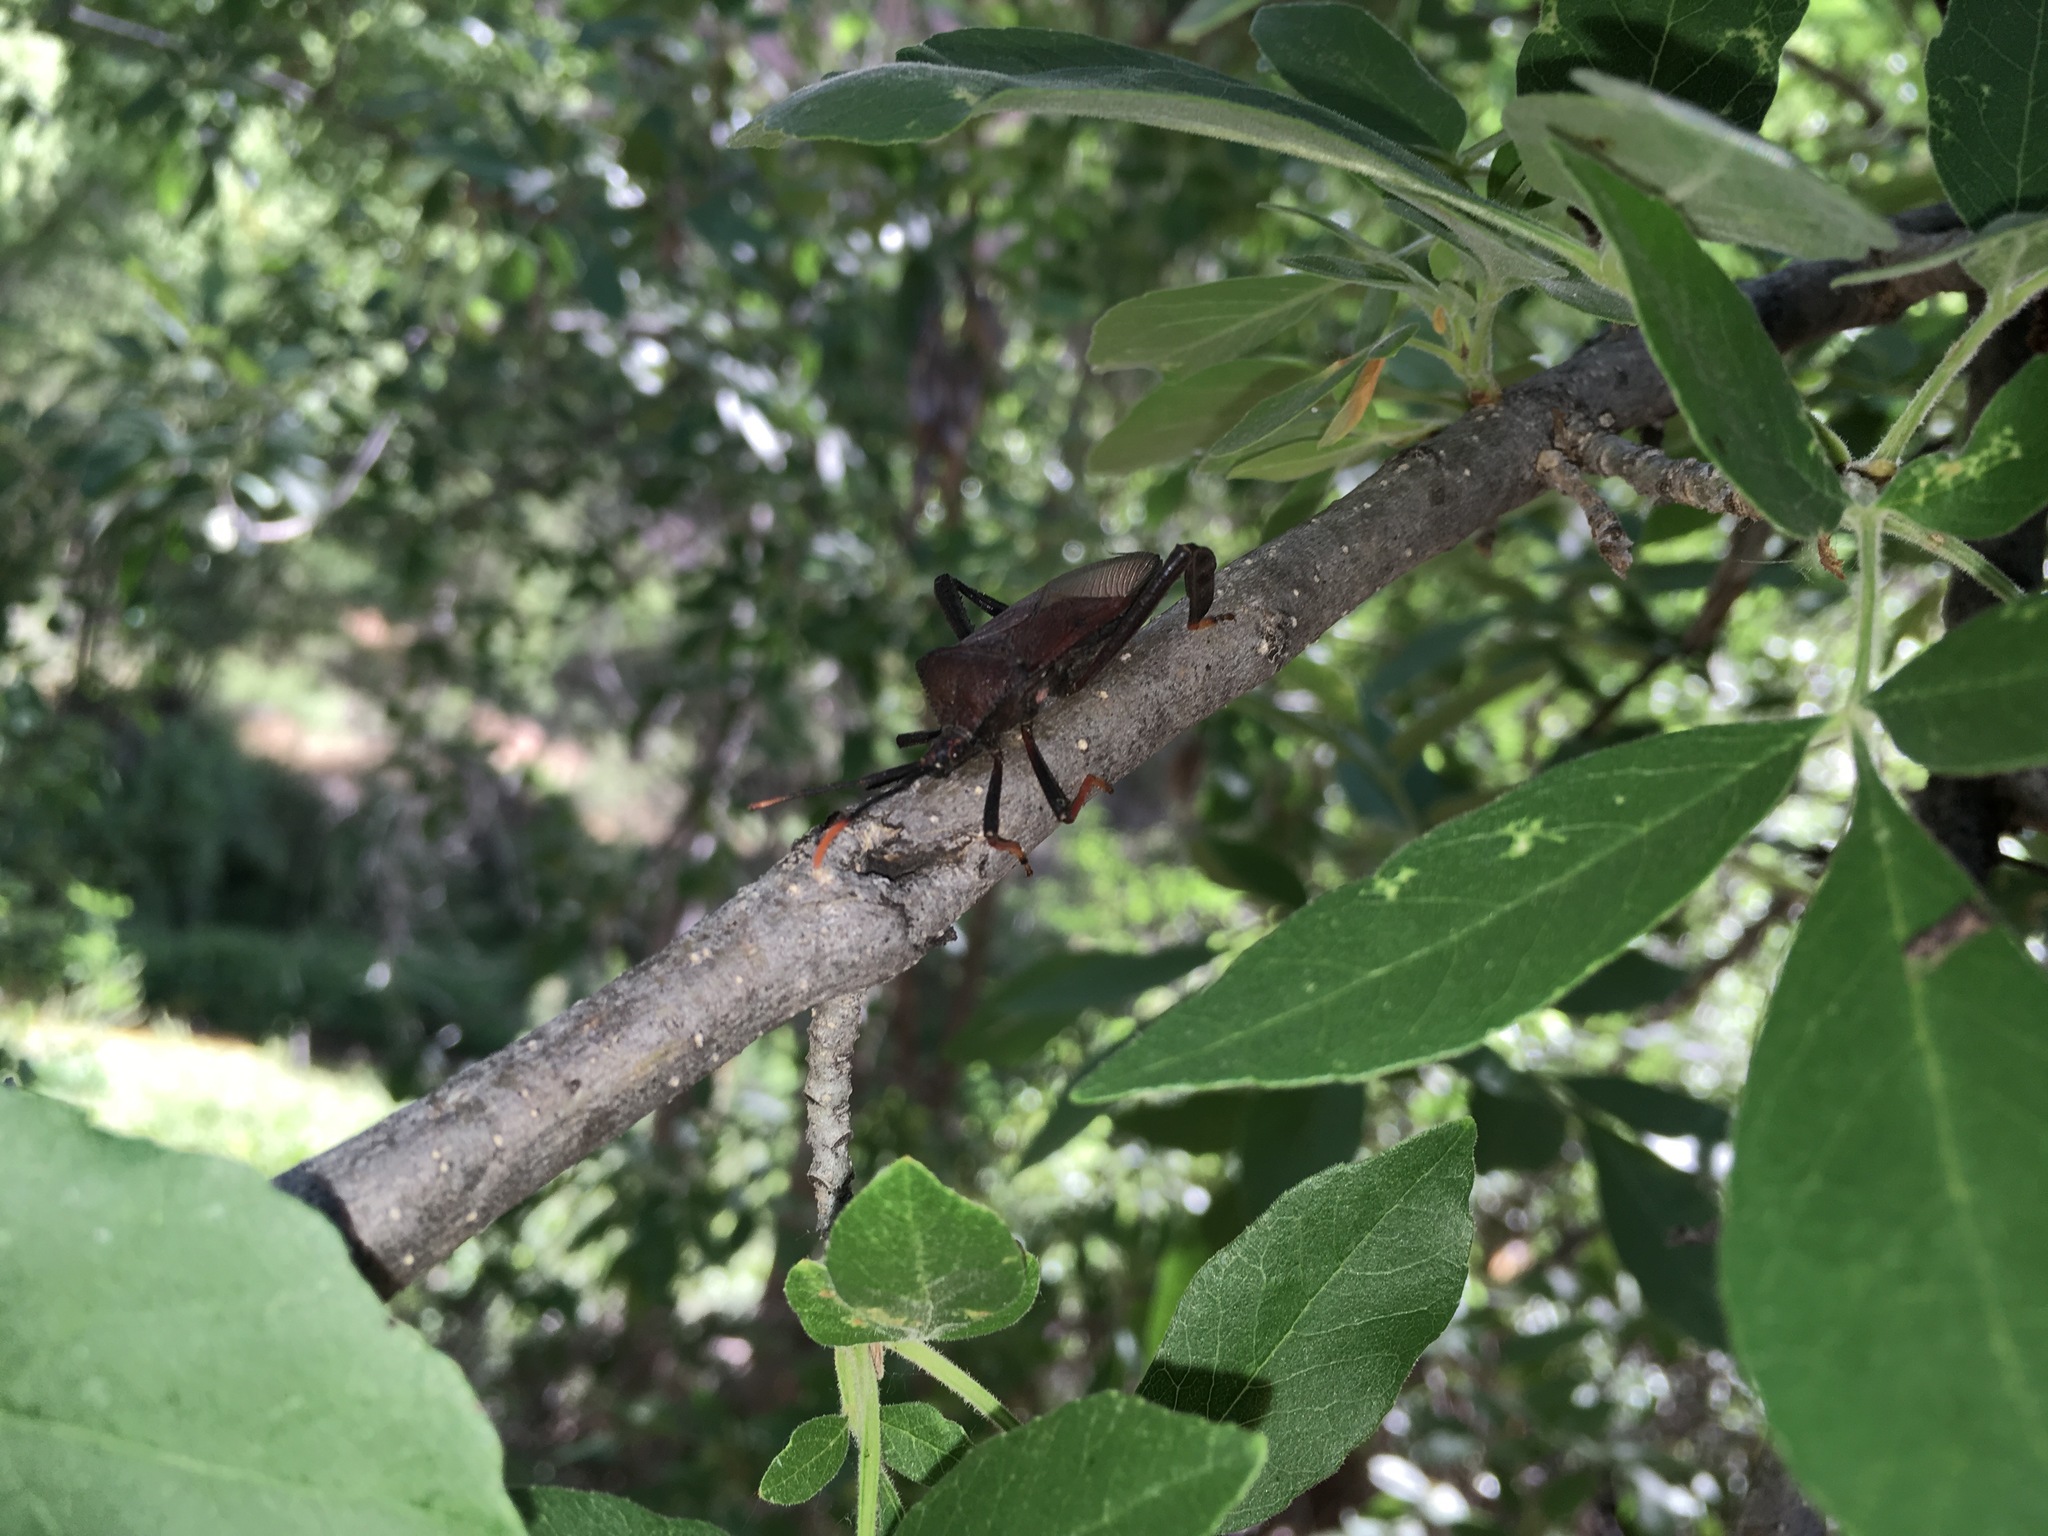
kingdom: Animalia
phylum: Arthropoda
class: Insecta
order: Hemiptera
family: Coreidae
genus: Acanthocephala
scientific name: Acanthocephala thomasi
